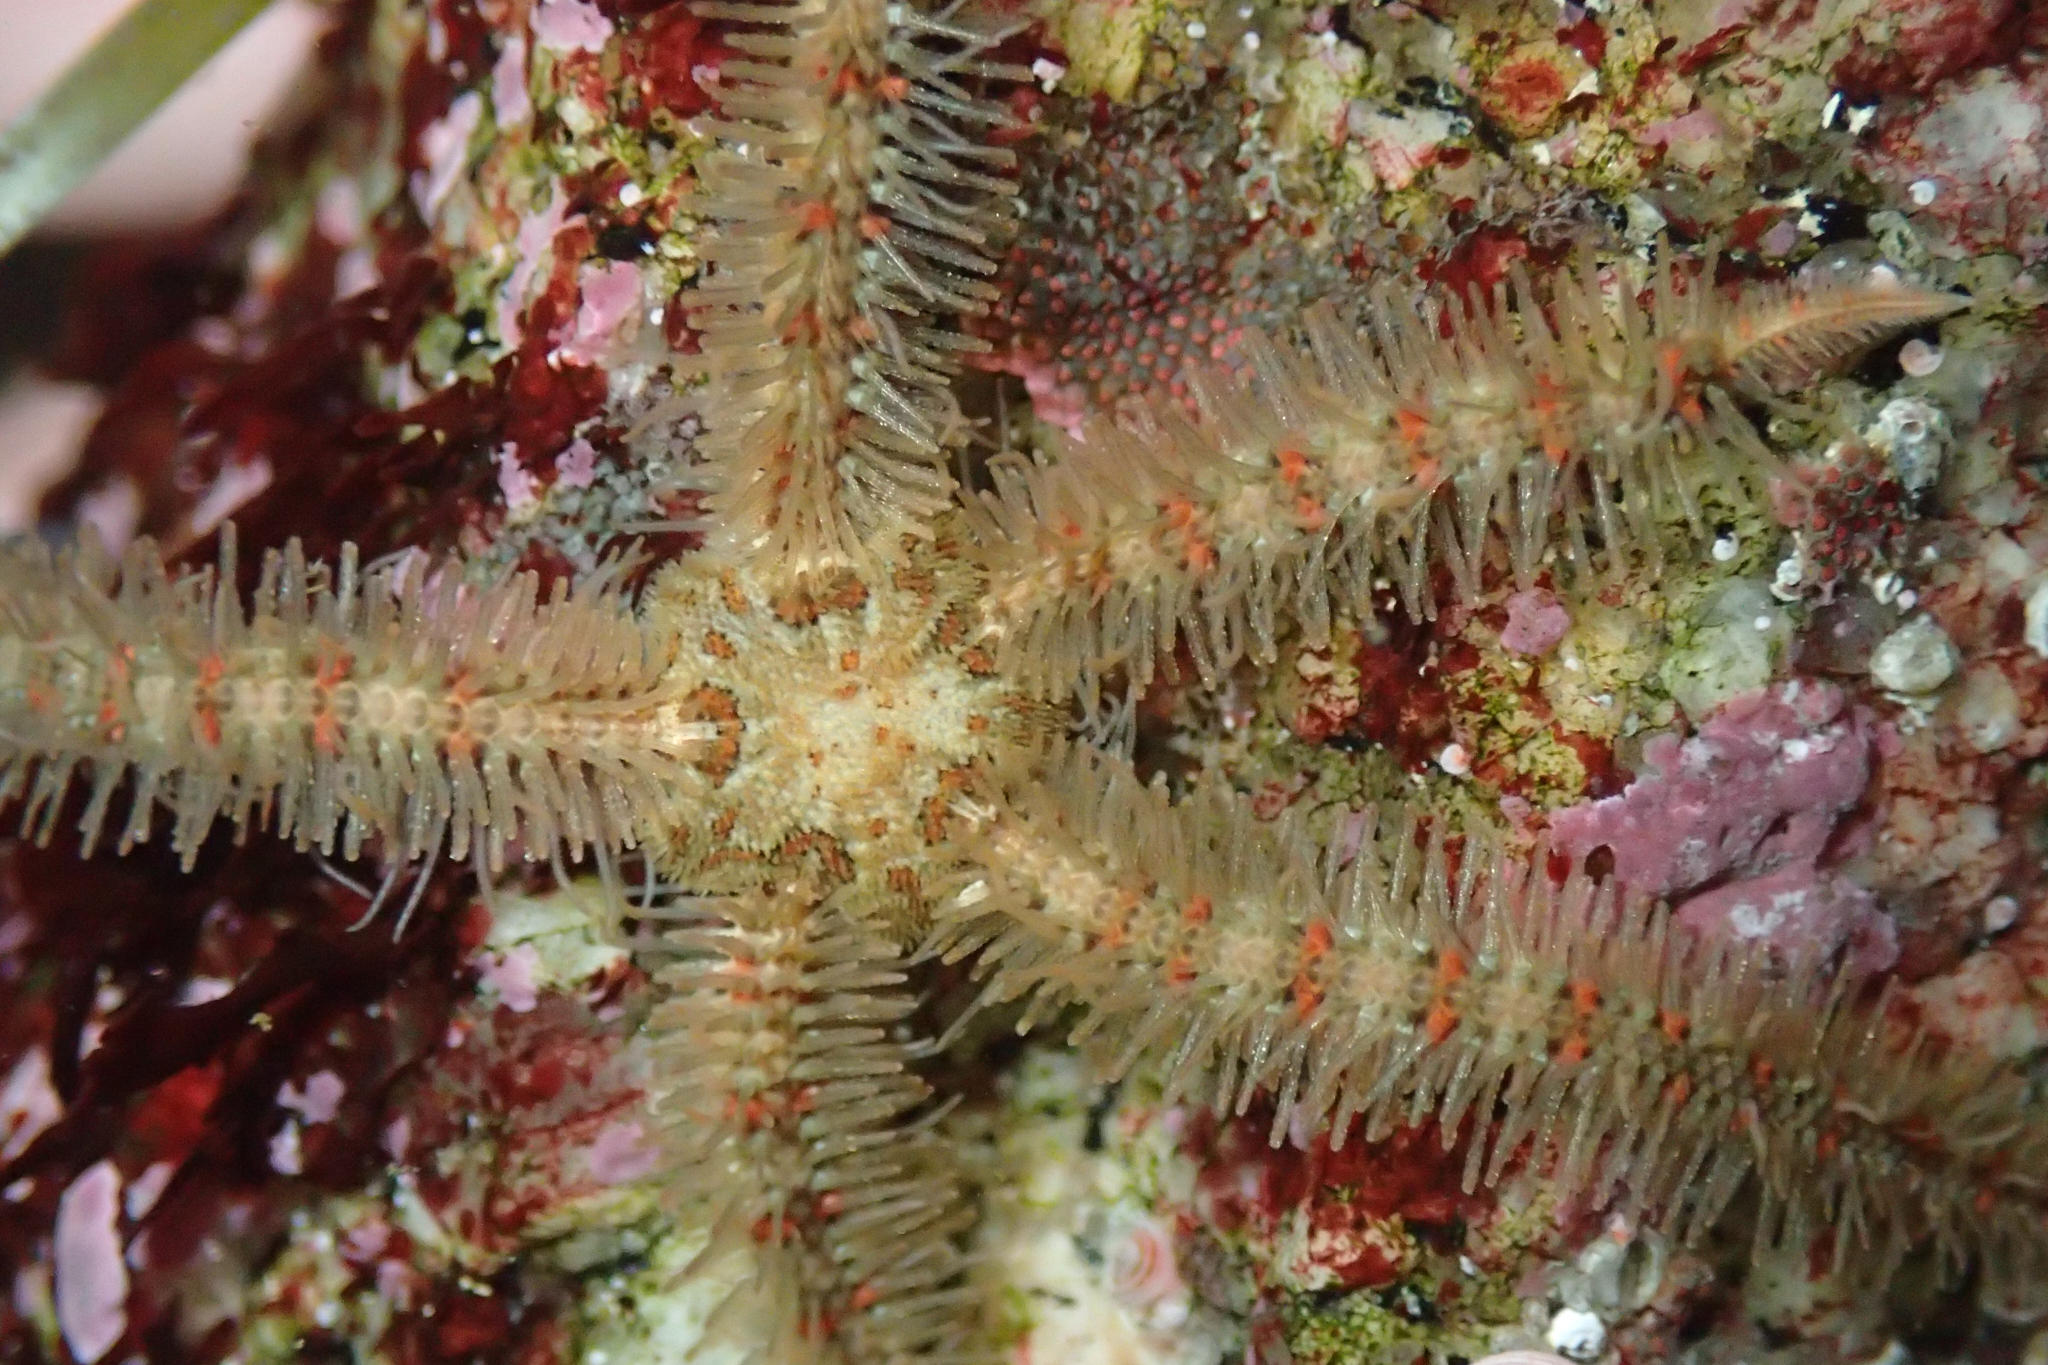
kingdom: Animalia
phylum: Echinodermata
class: Ophiuroidea
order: Amphilepidida
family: Ophiotrichidae
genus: Ophiothrix
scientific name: Ophiothrix spiculata
